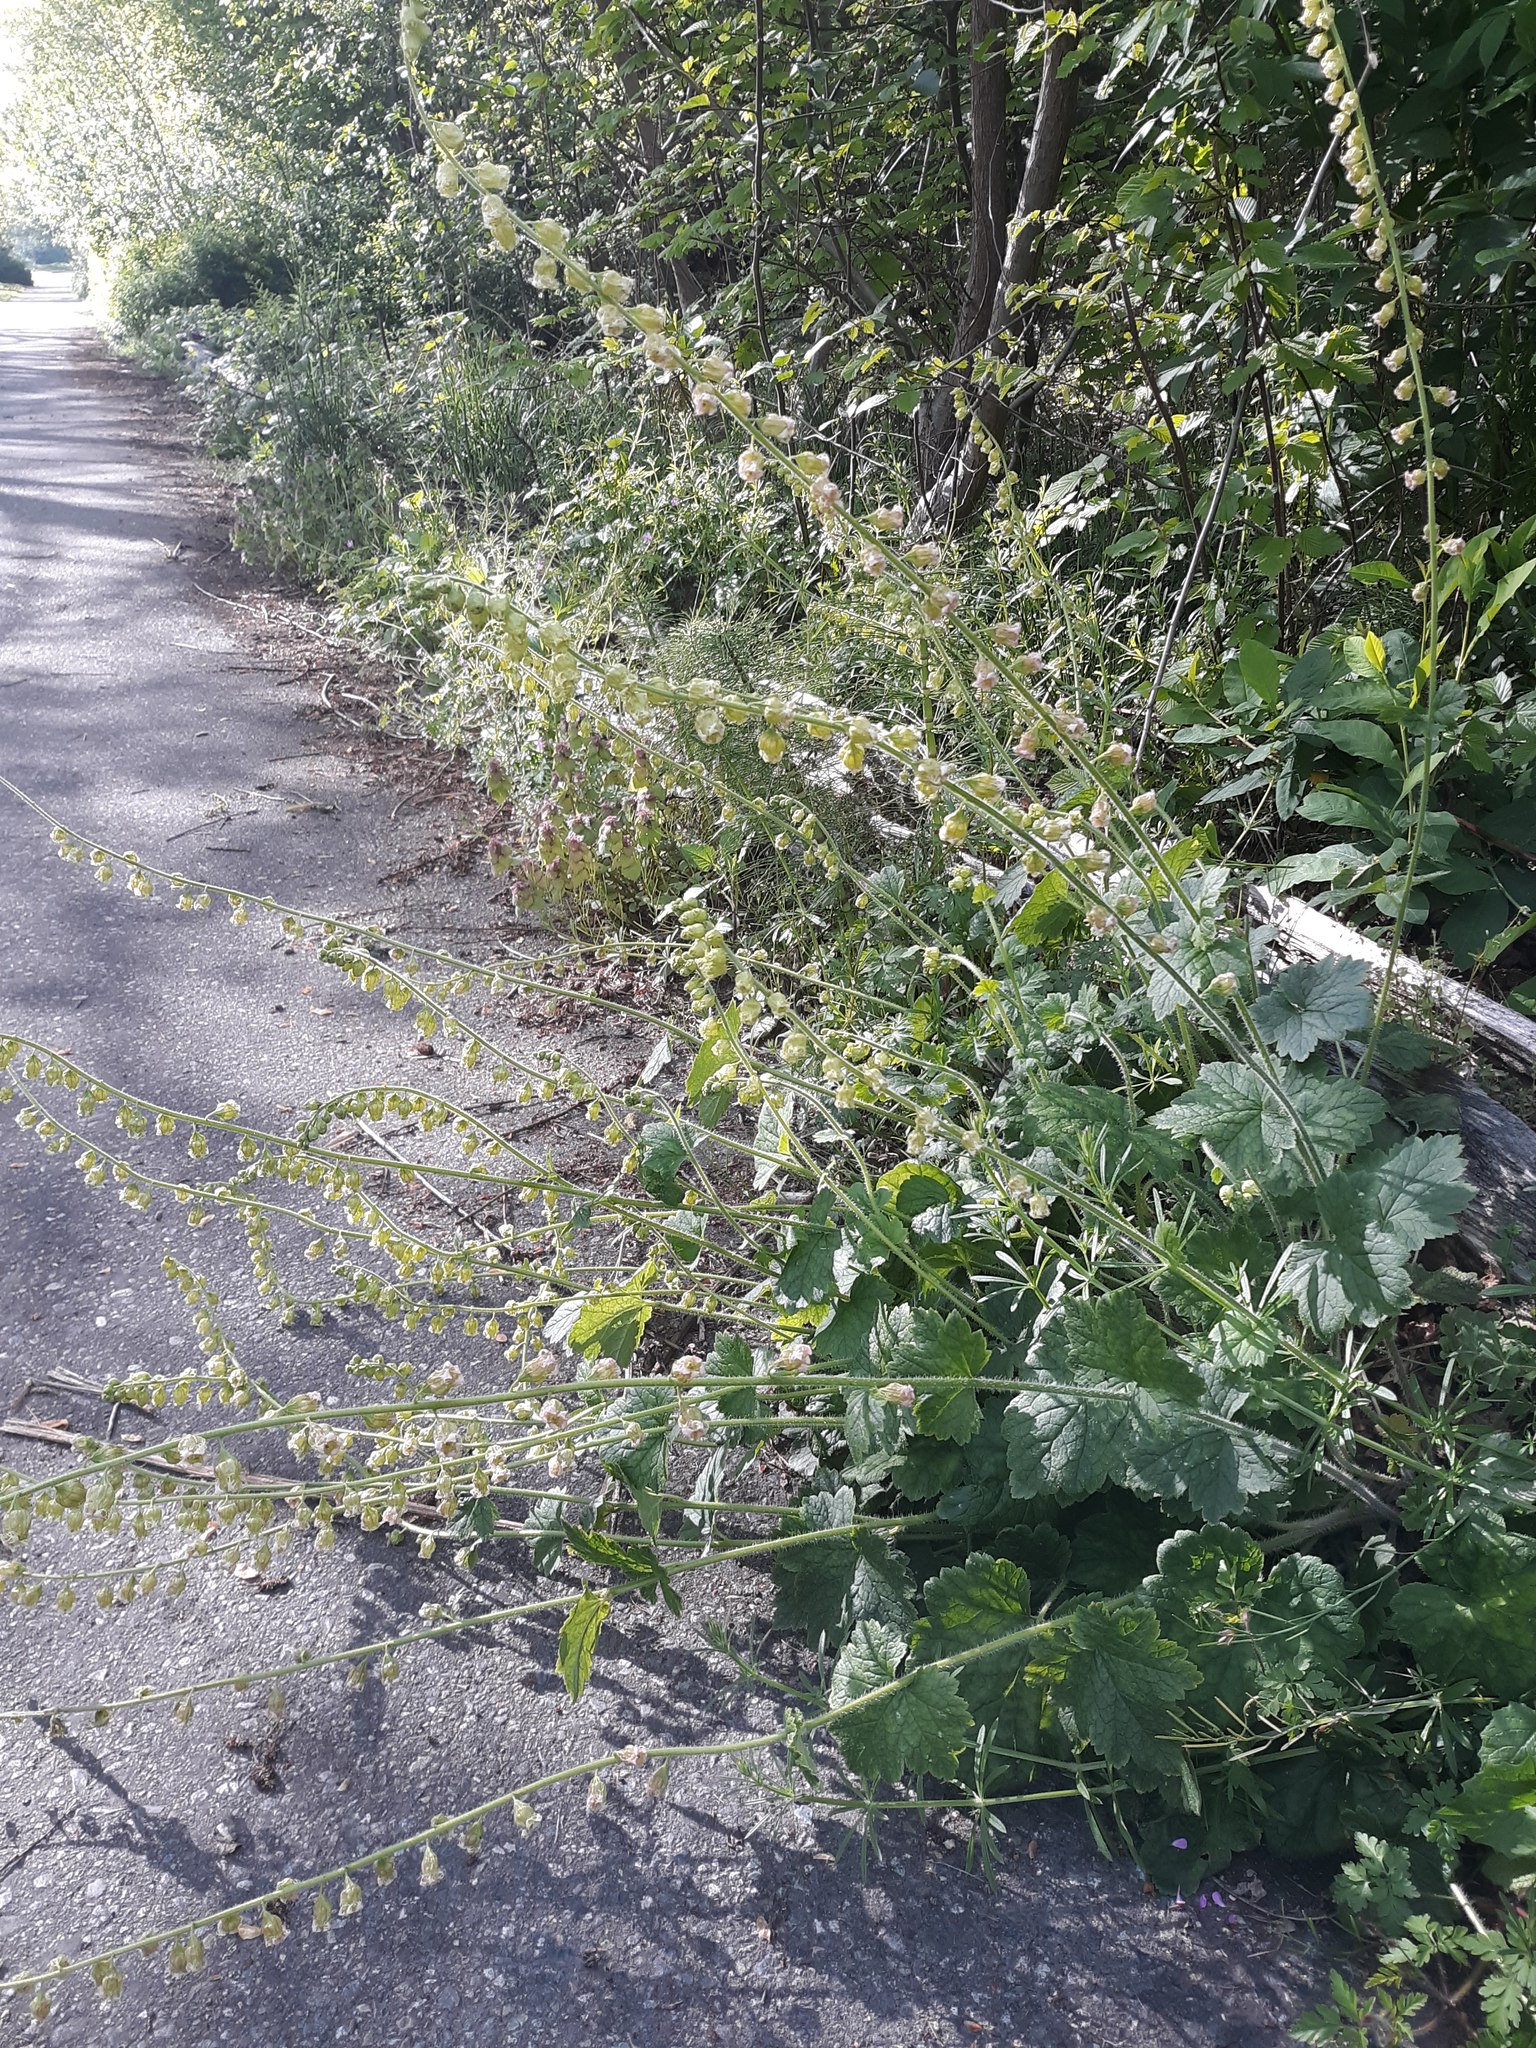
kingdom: Plantae
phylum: Tracheophyta
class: Magnoliopsida
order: Saxifragales
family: Saxifragaceae
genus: Tellima
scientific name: Tellima grandiflora
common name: Fringecups
